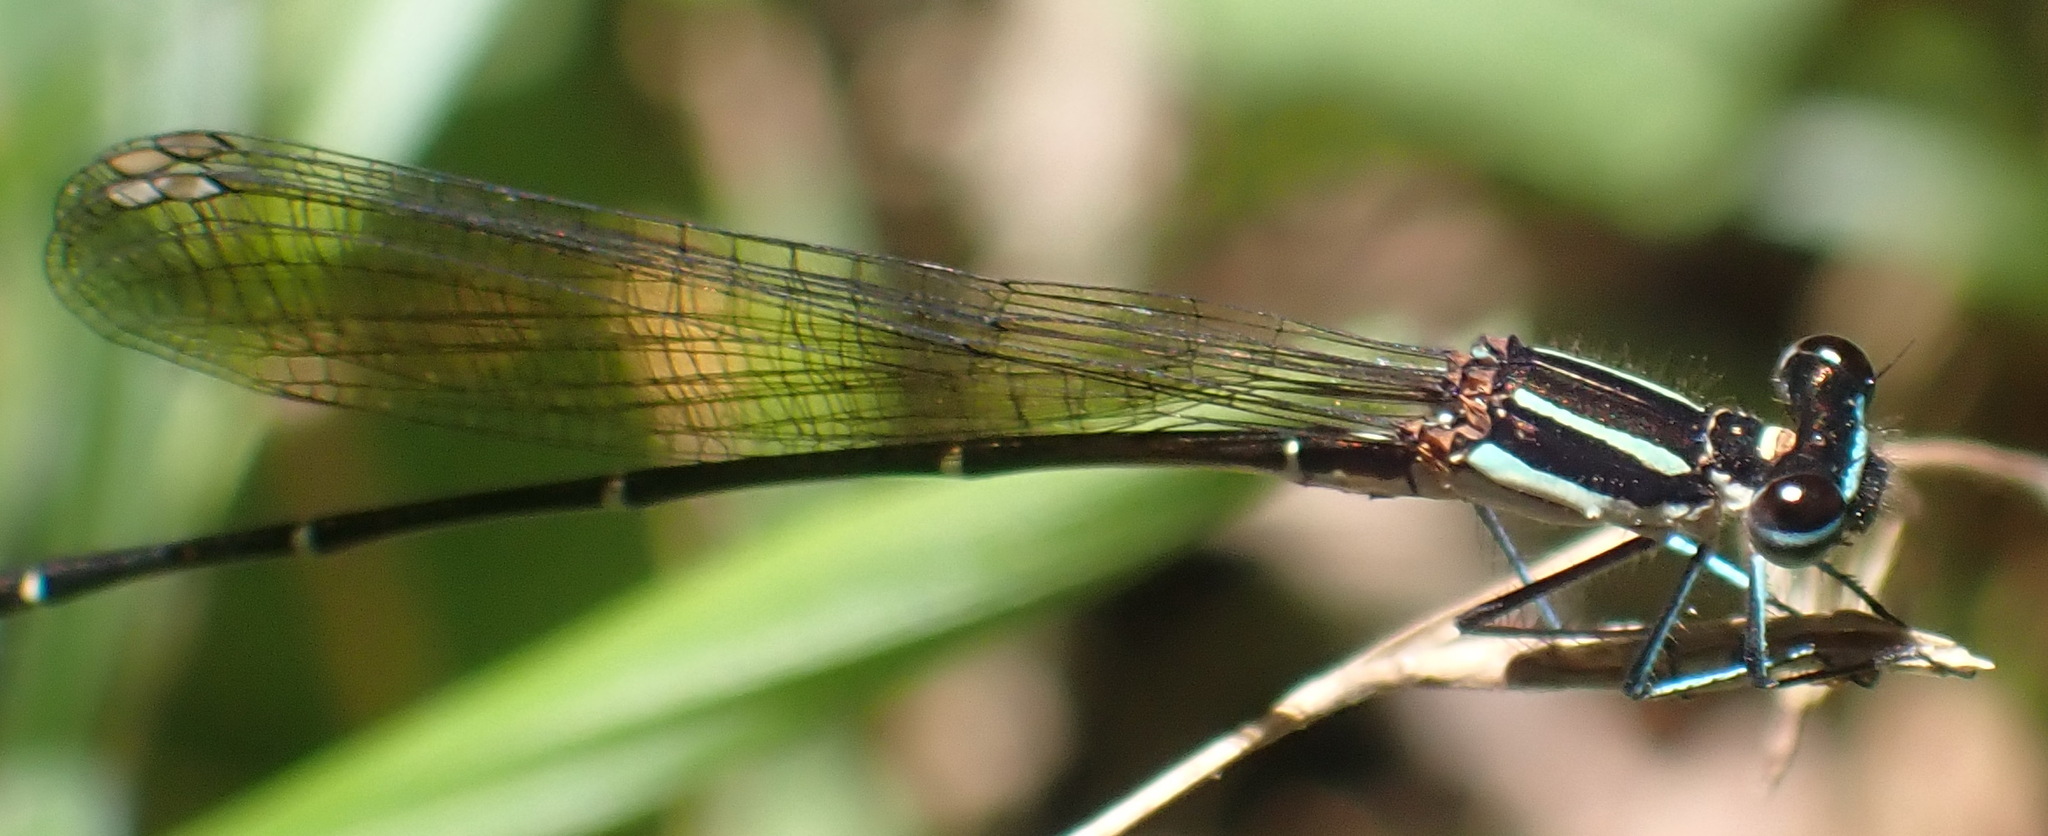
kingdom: Animalia
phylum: Arthropoda
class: Insecta
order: Odonata
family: Platycnemididae
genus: Allocnemis
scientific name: Allocnemis leucosticta
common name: Goldtail
